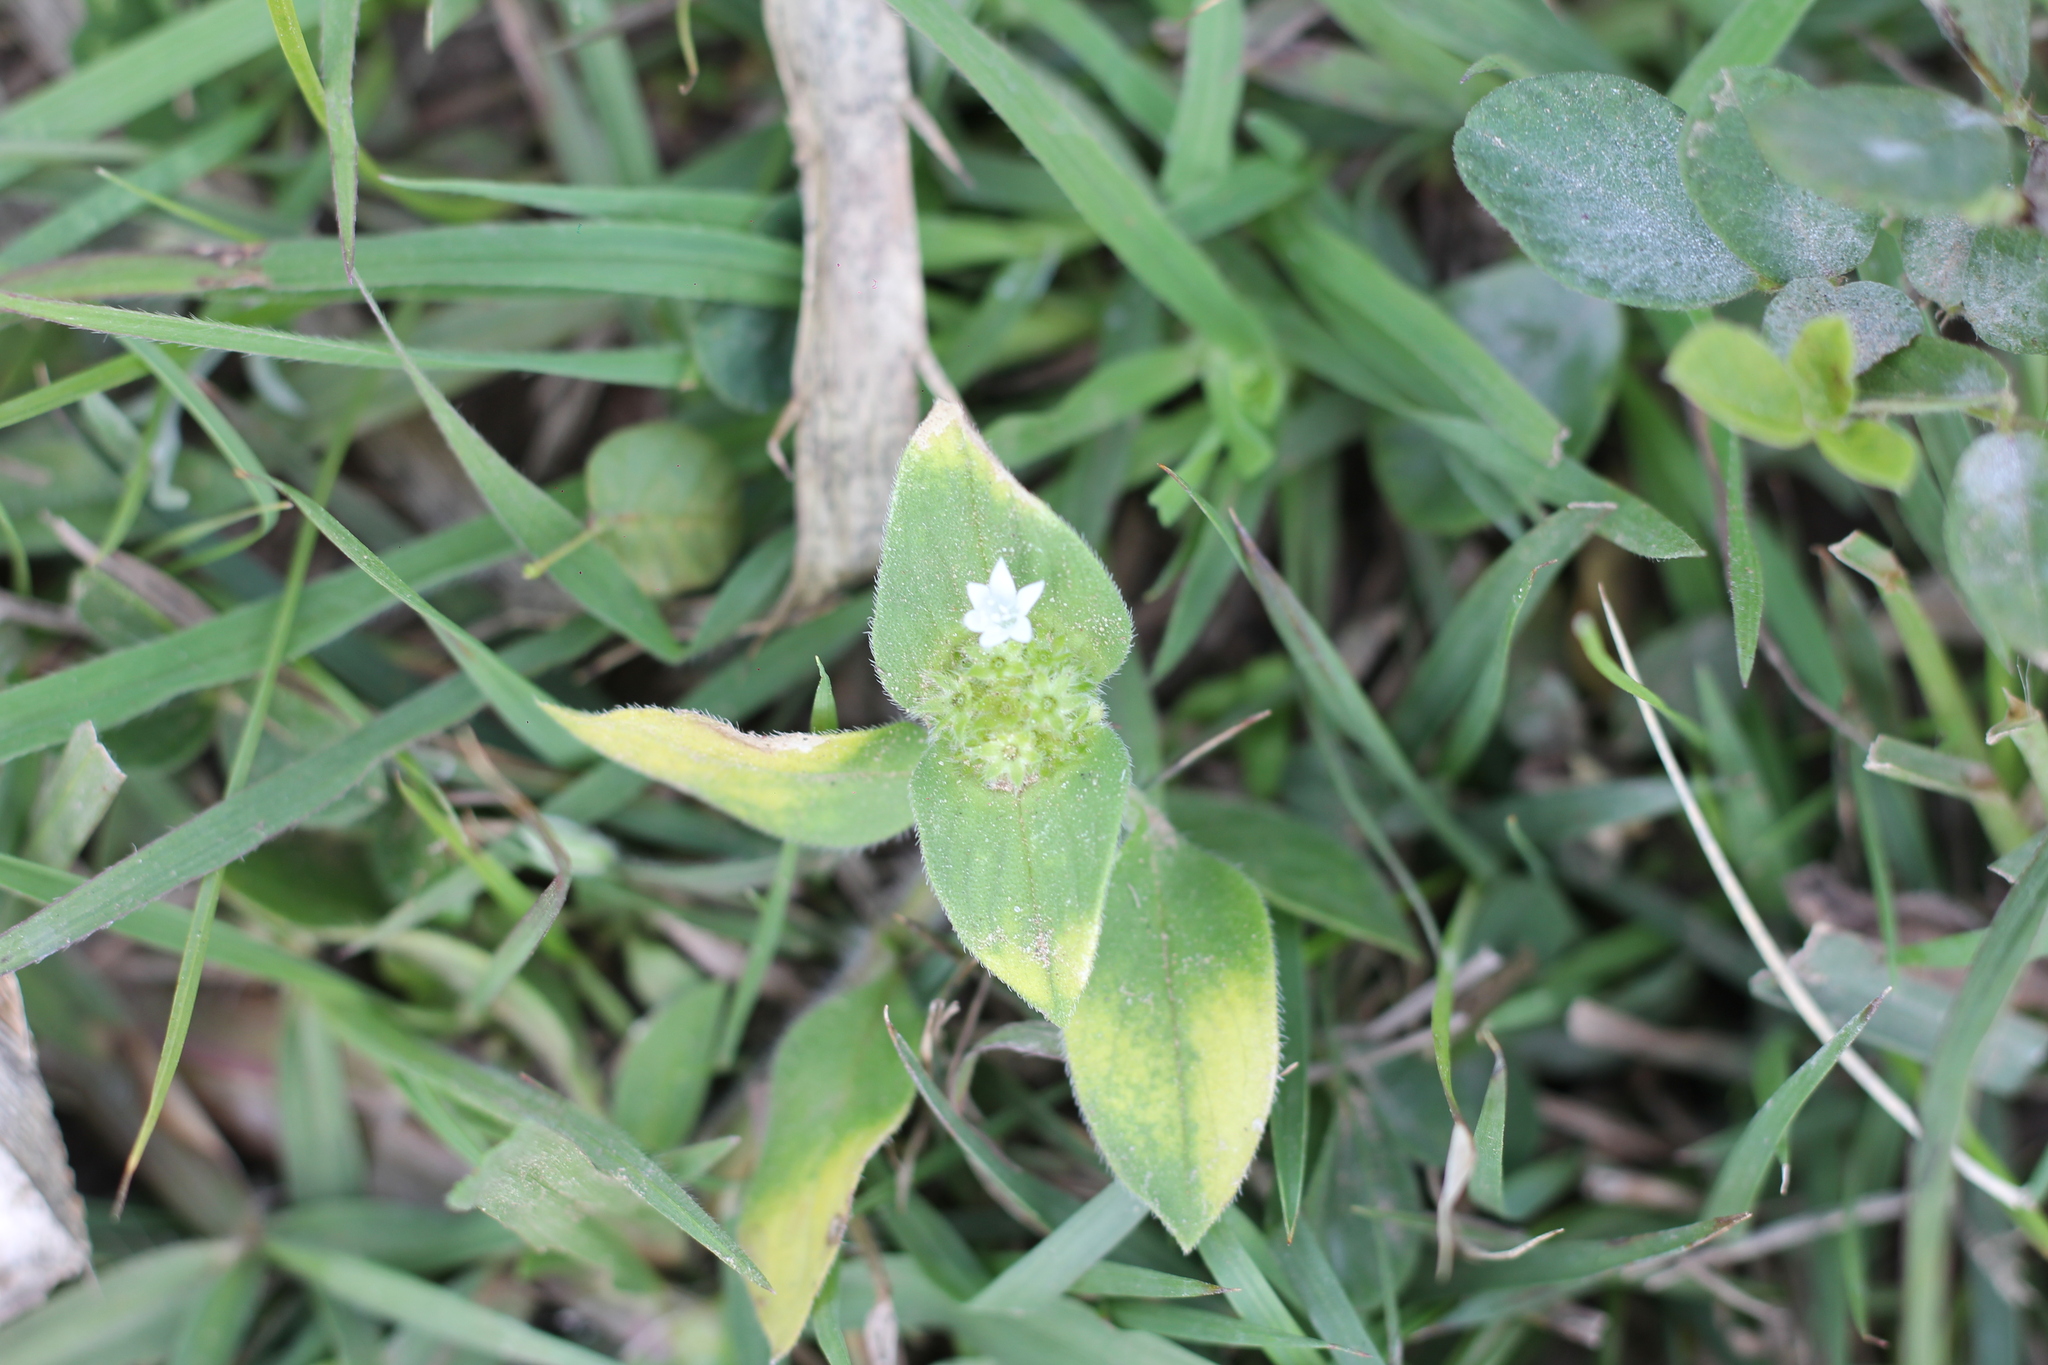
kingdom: Plantae
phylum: Tracheophyta
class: Magnoliopsida
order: Gentianales
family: Rubiaceae
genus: Richardia
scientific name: Richardia brasiliensis
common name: Tropical mexican clover
